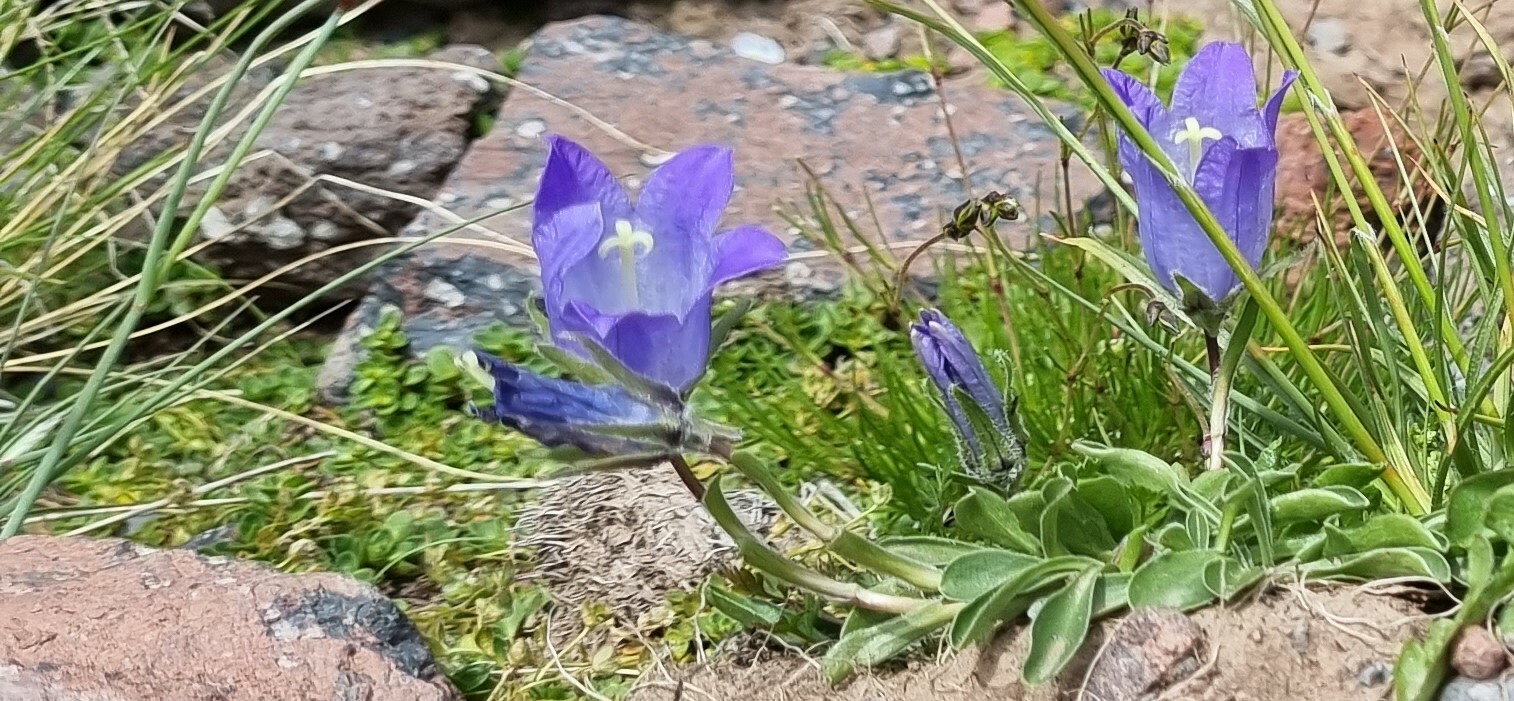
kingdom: Plantae
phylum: Tracheophyta
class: Magnoliopsida
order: Asterales
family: Campanulaceae
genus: Campanula
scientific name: Campanula tridentata
